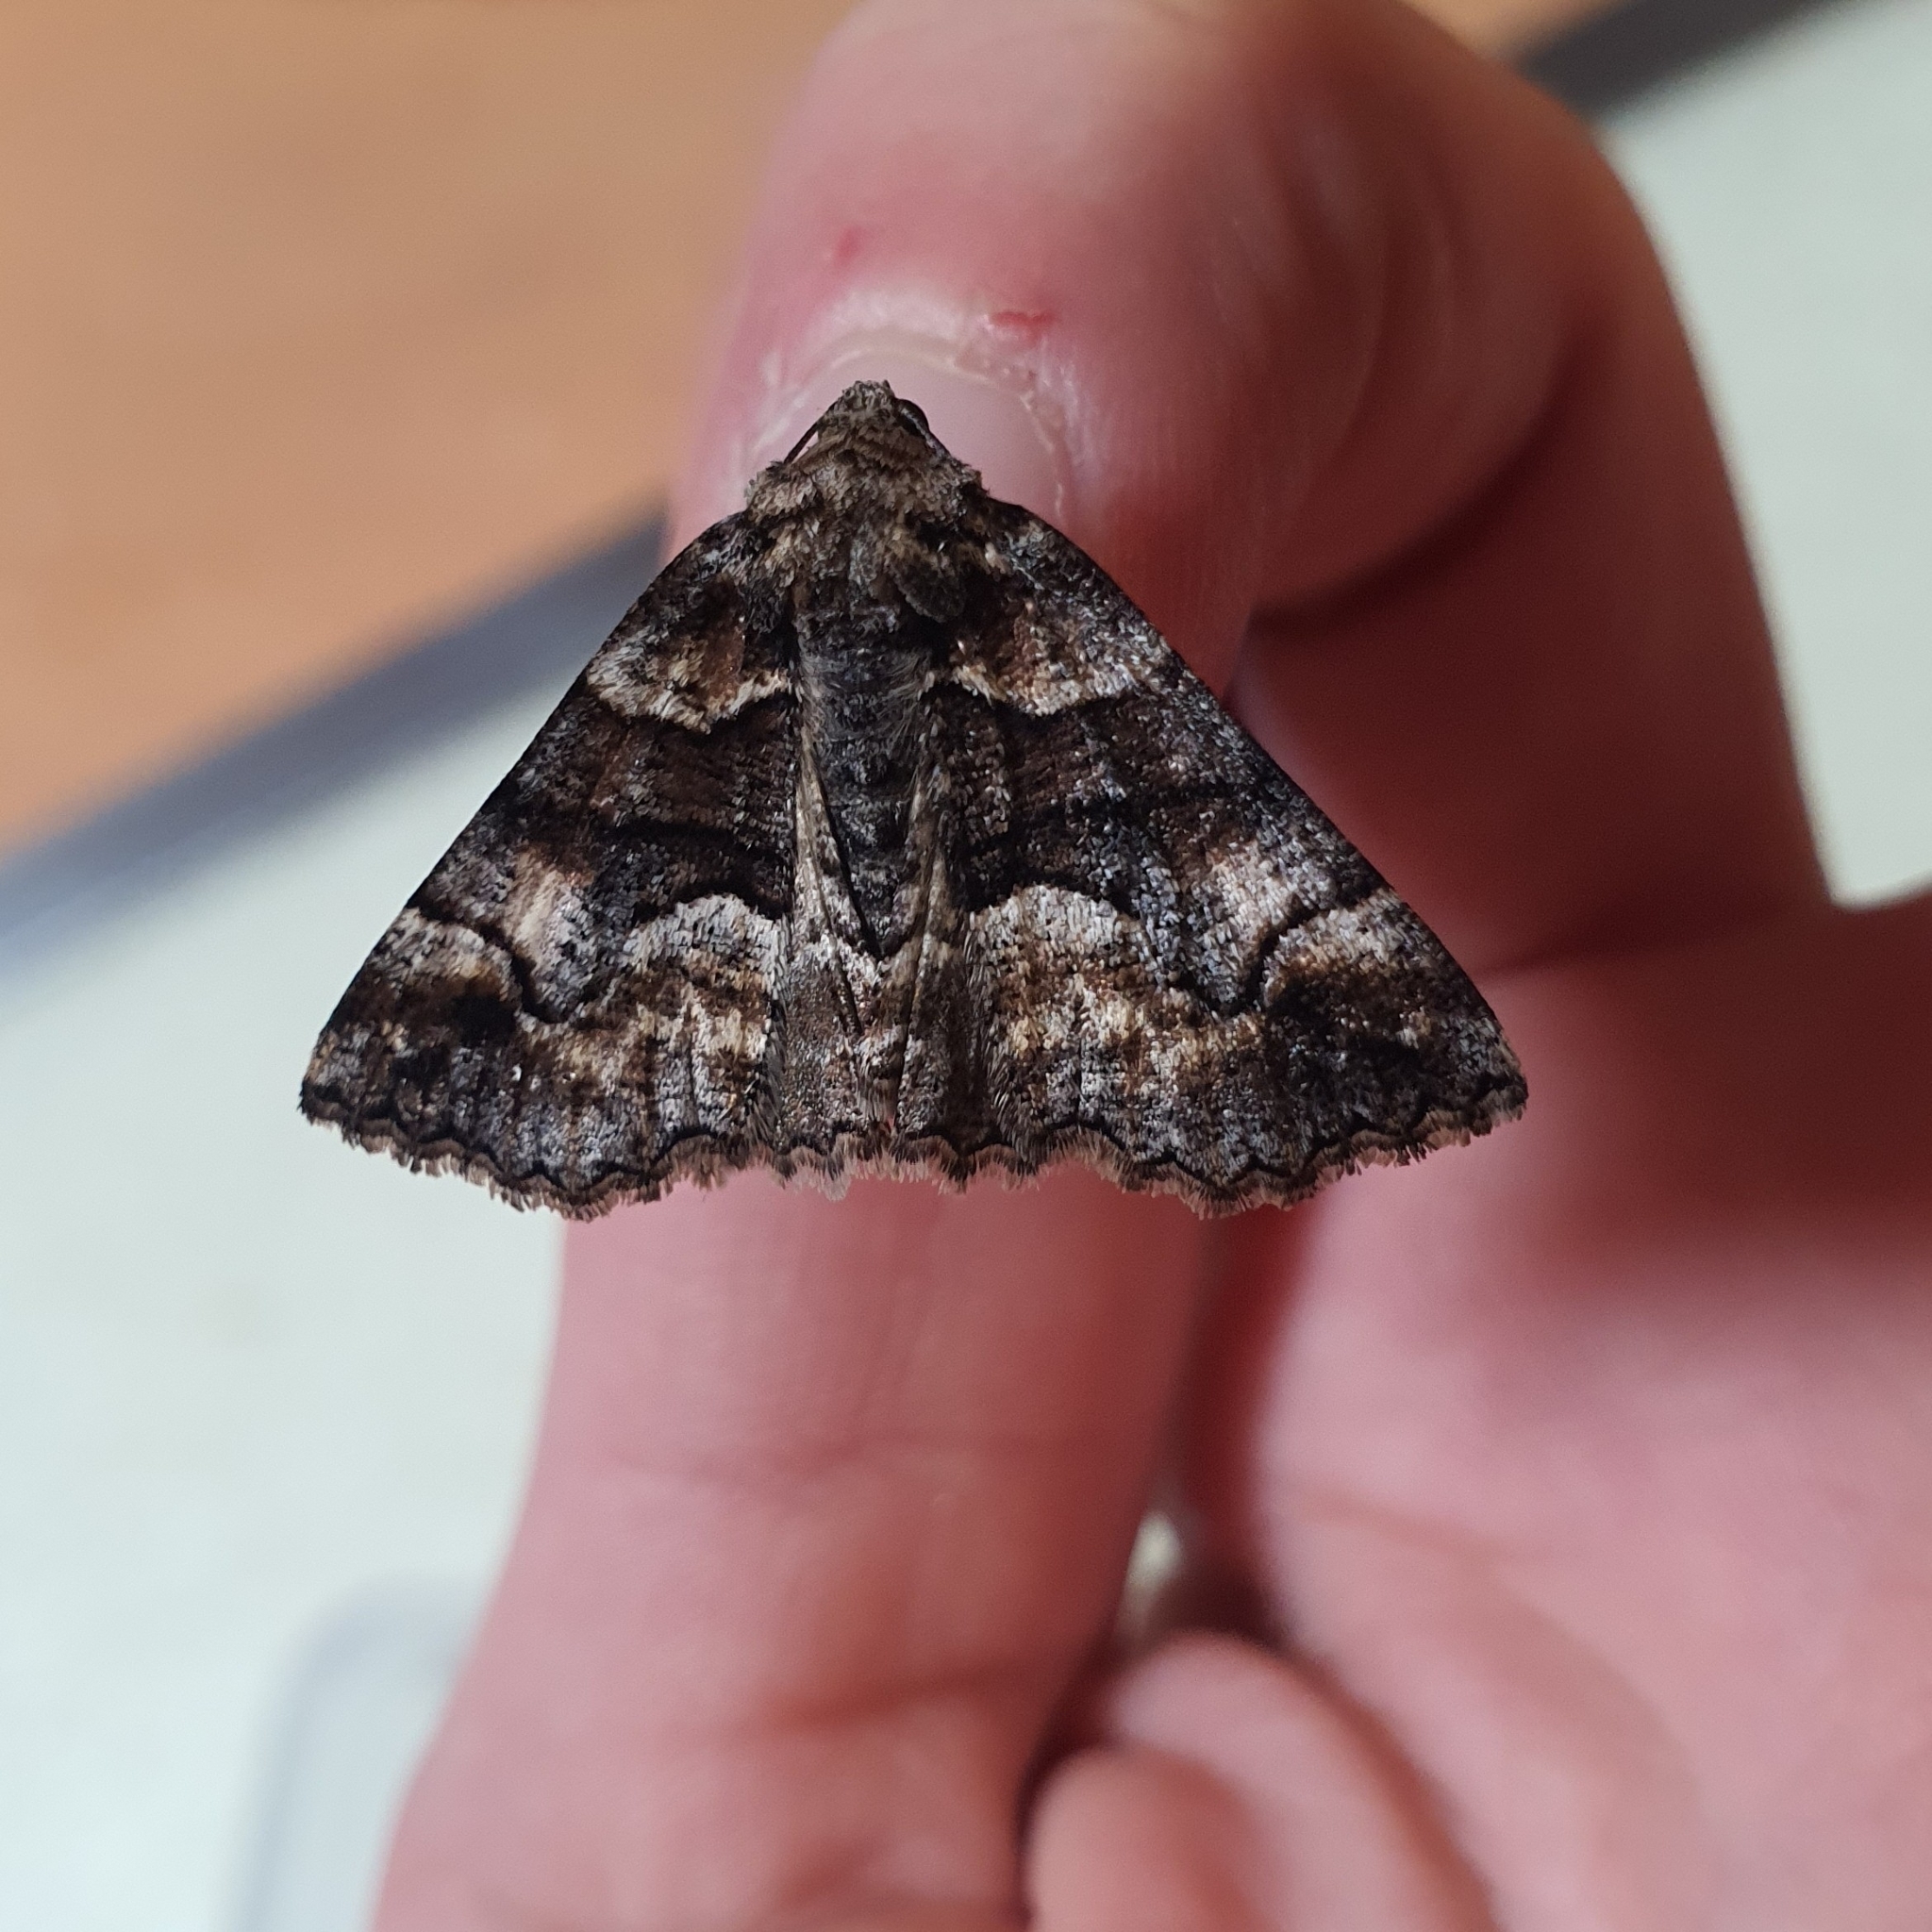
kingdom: Animalia
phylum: Arthropoda
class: Insecta
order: Lepidoptera
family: Geometridae
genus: Gastrina
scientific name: Gastrina cristaria
